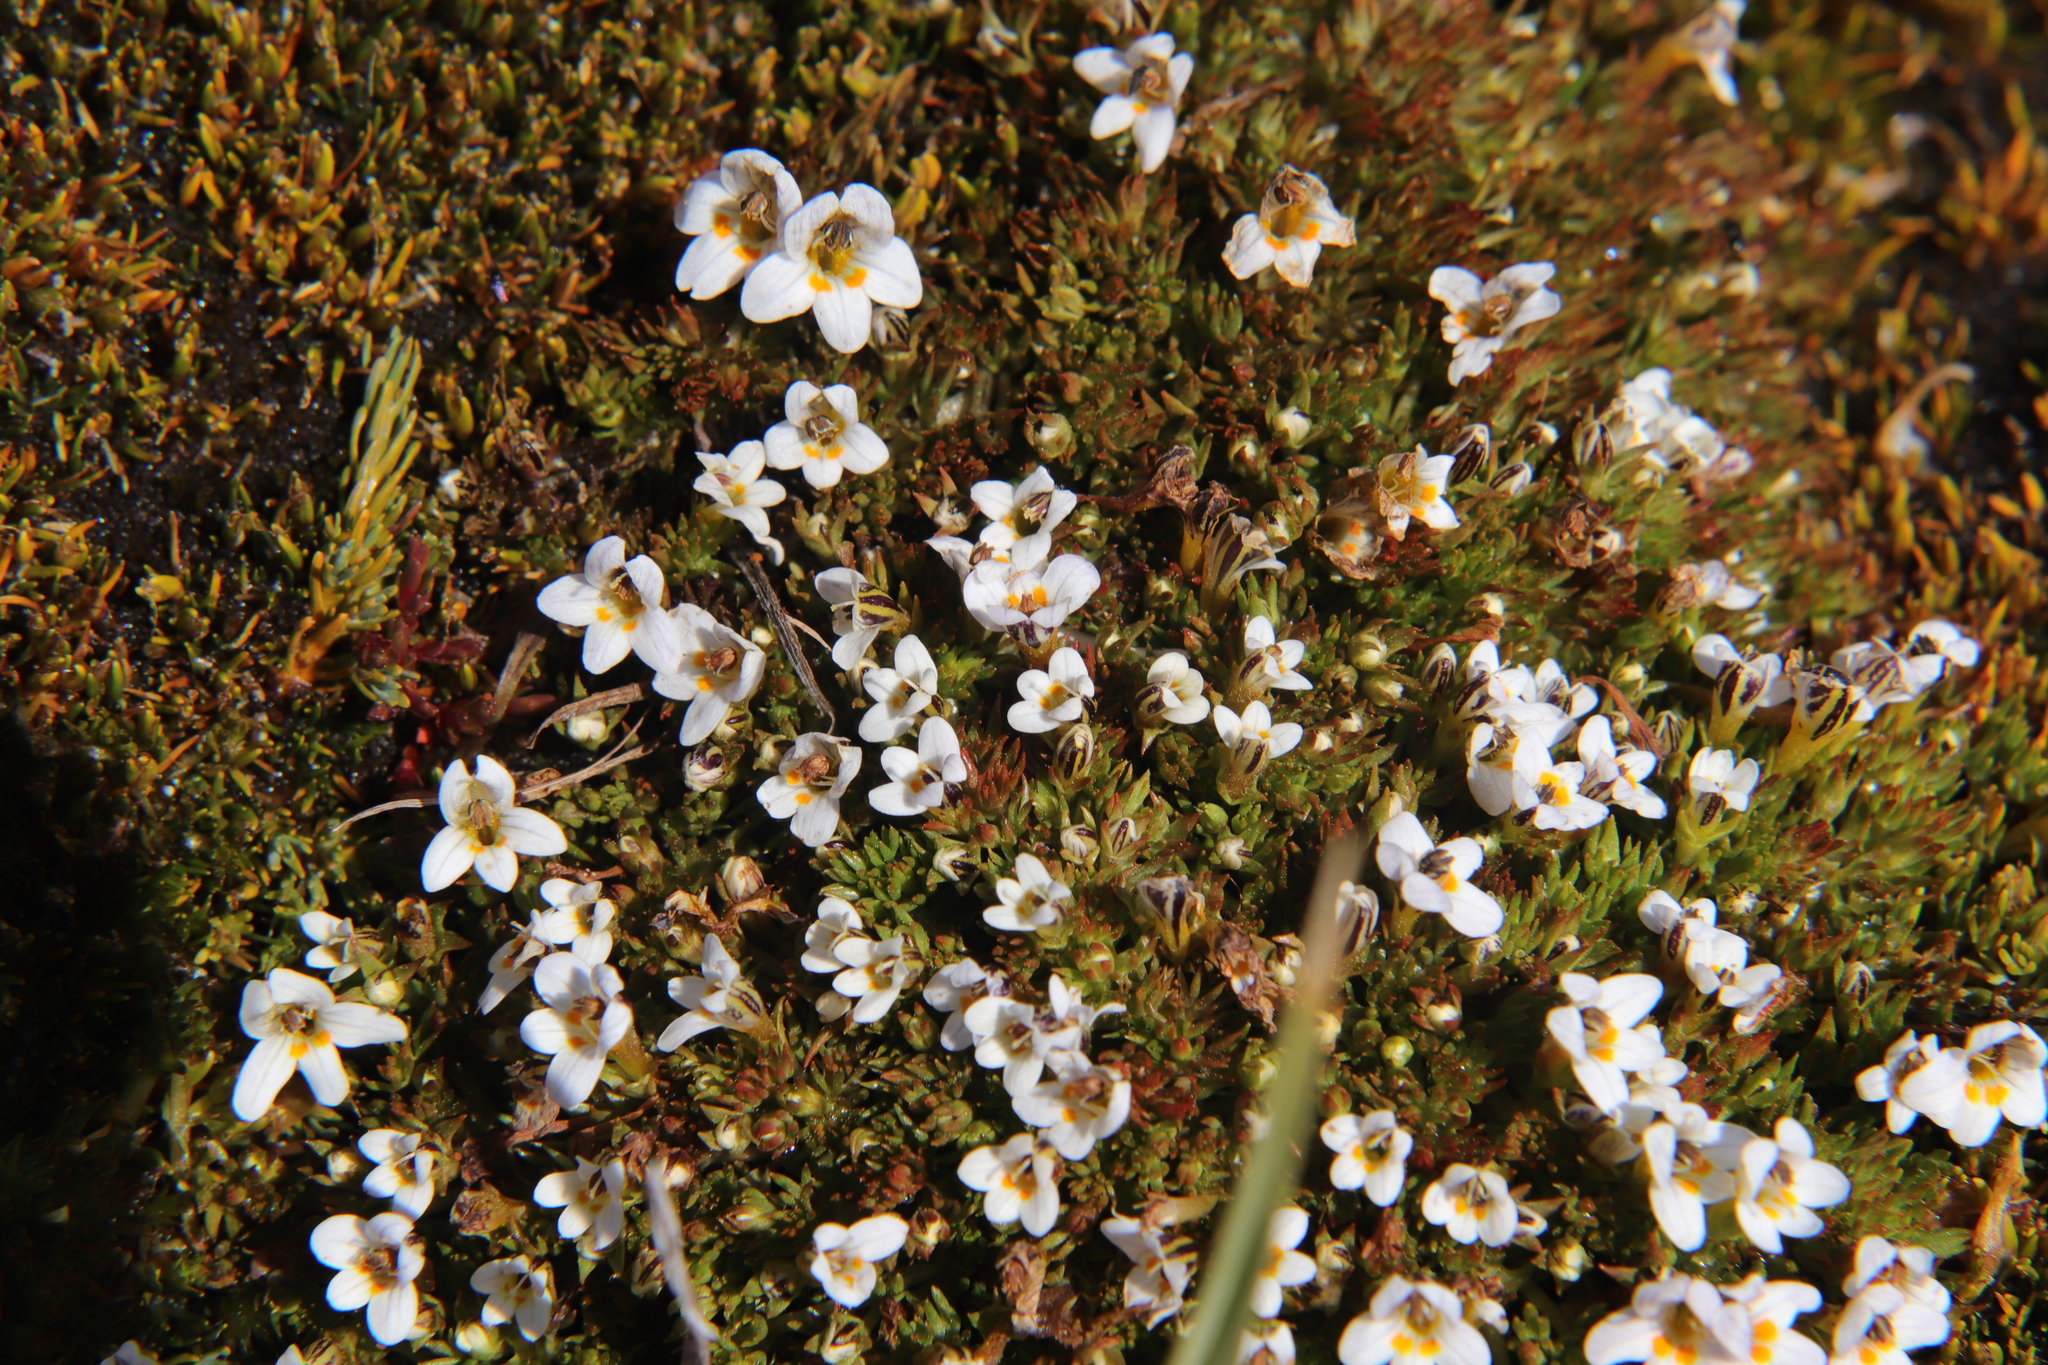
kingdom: Plantae
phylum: Tracheophyta
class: Magnoliopsida
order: Lamiales
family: Orobanchaceae
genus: Euphrasia
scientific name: Euphrasia dyeri
